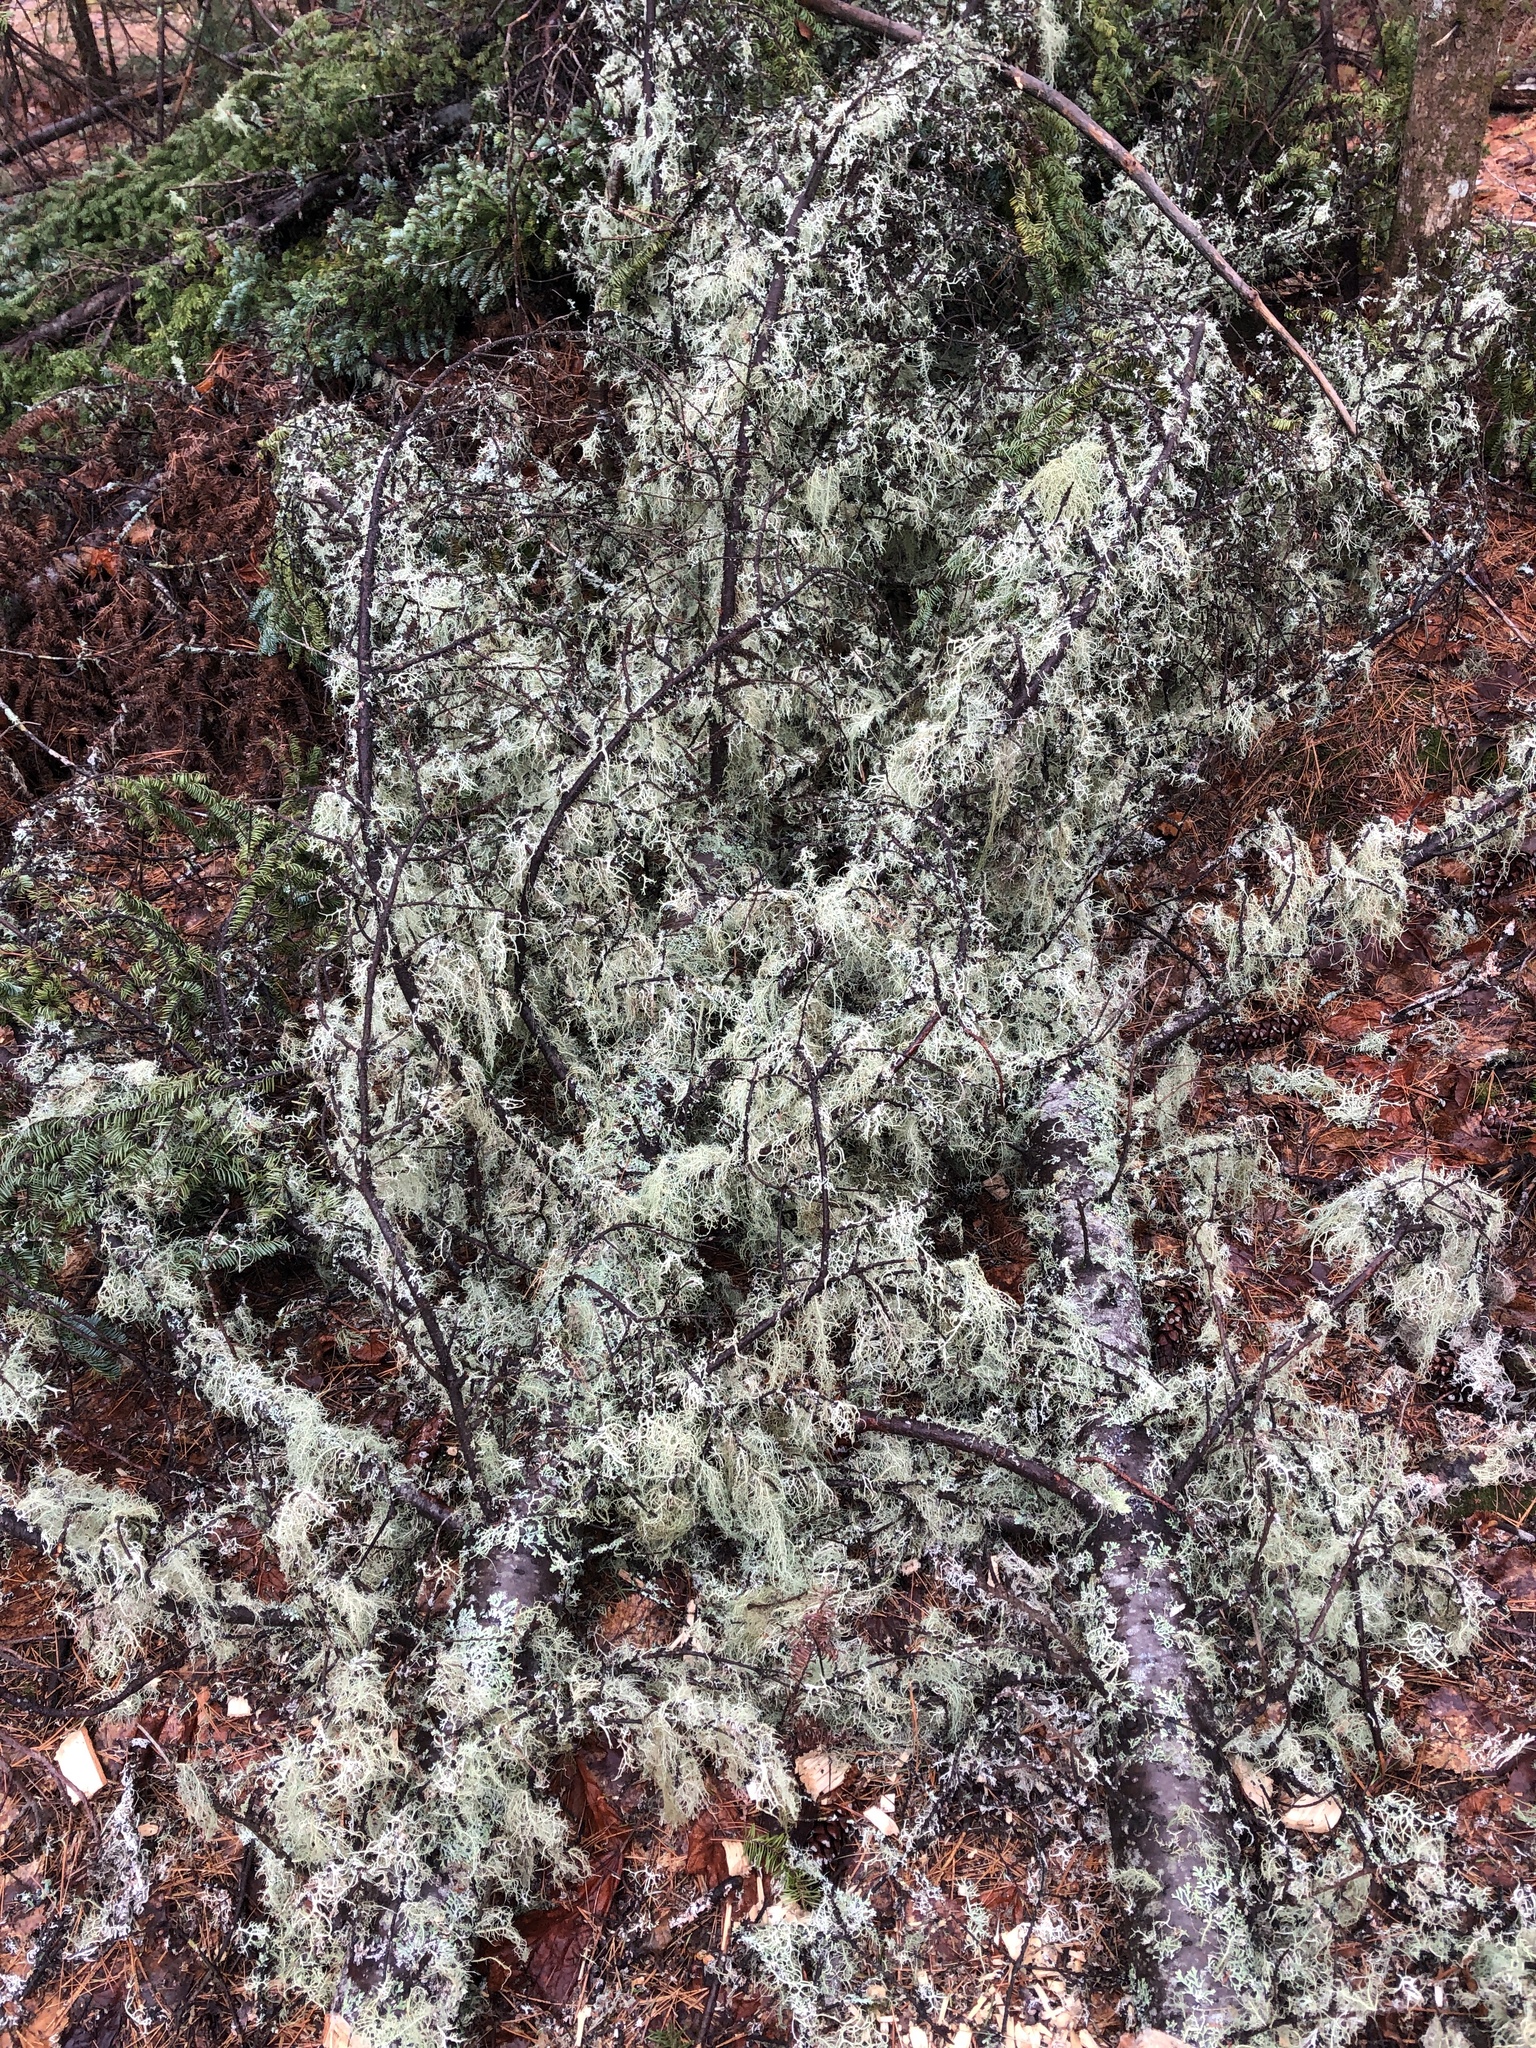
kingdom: Fungi
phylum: Ascomycota
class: Lecanoromycetes
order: Lecanorales
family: Parmeliaceae
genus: Evernia
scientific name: Evernia mesomorpha
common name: Boreal oak moss lichen
